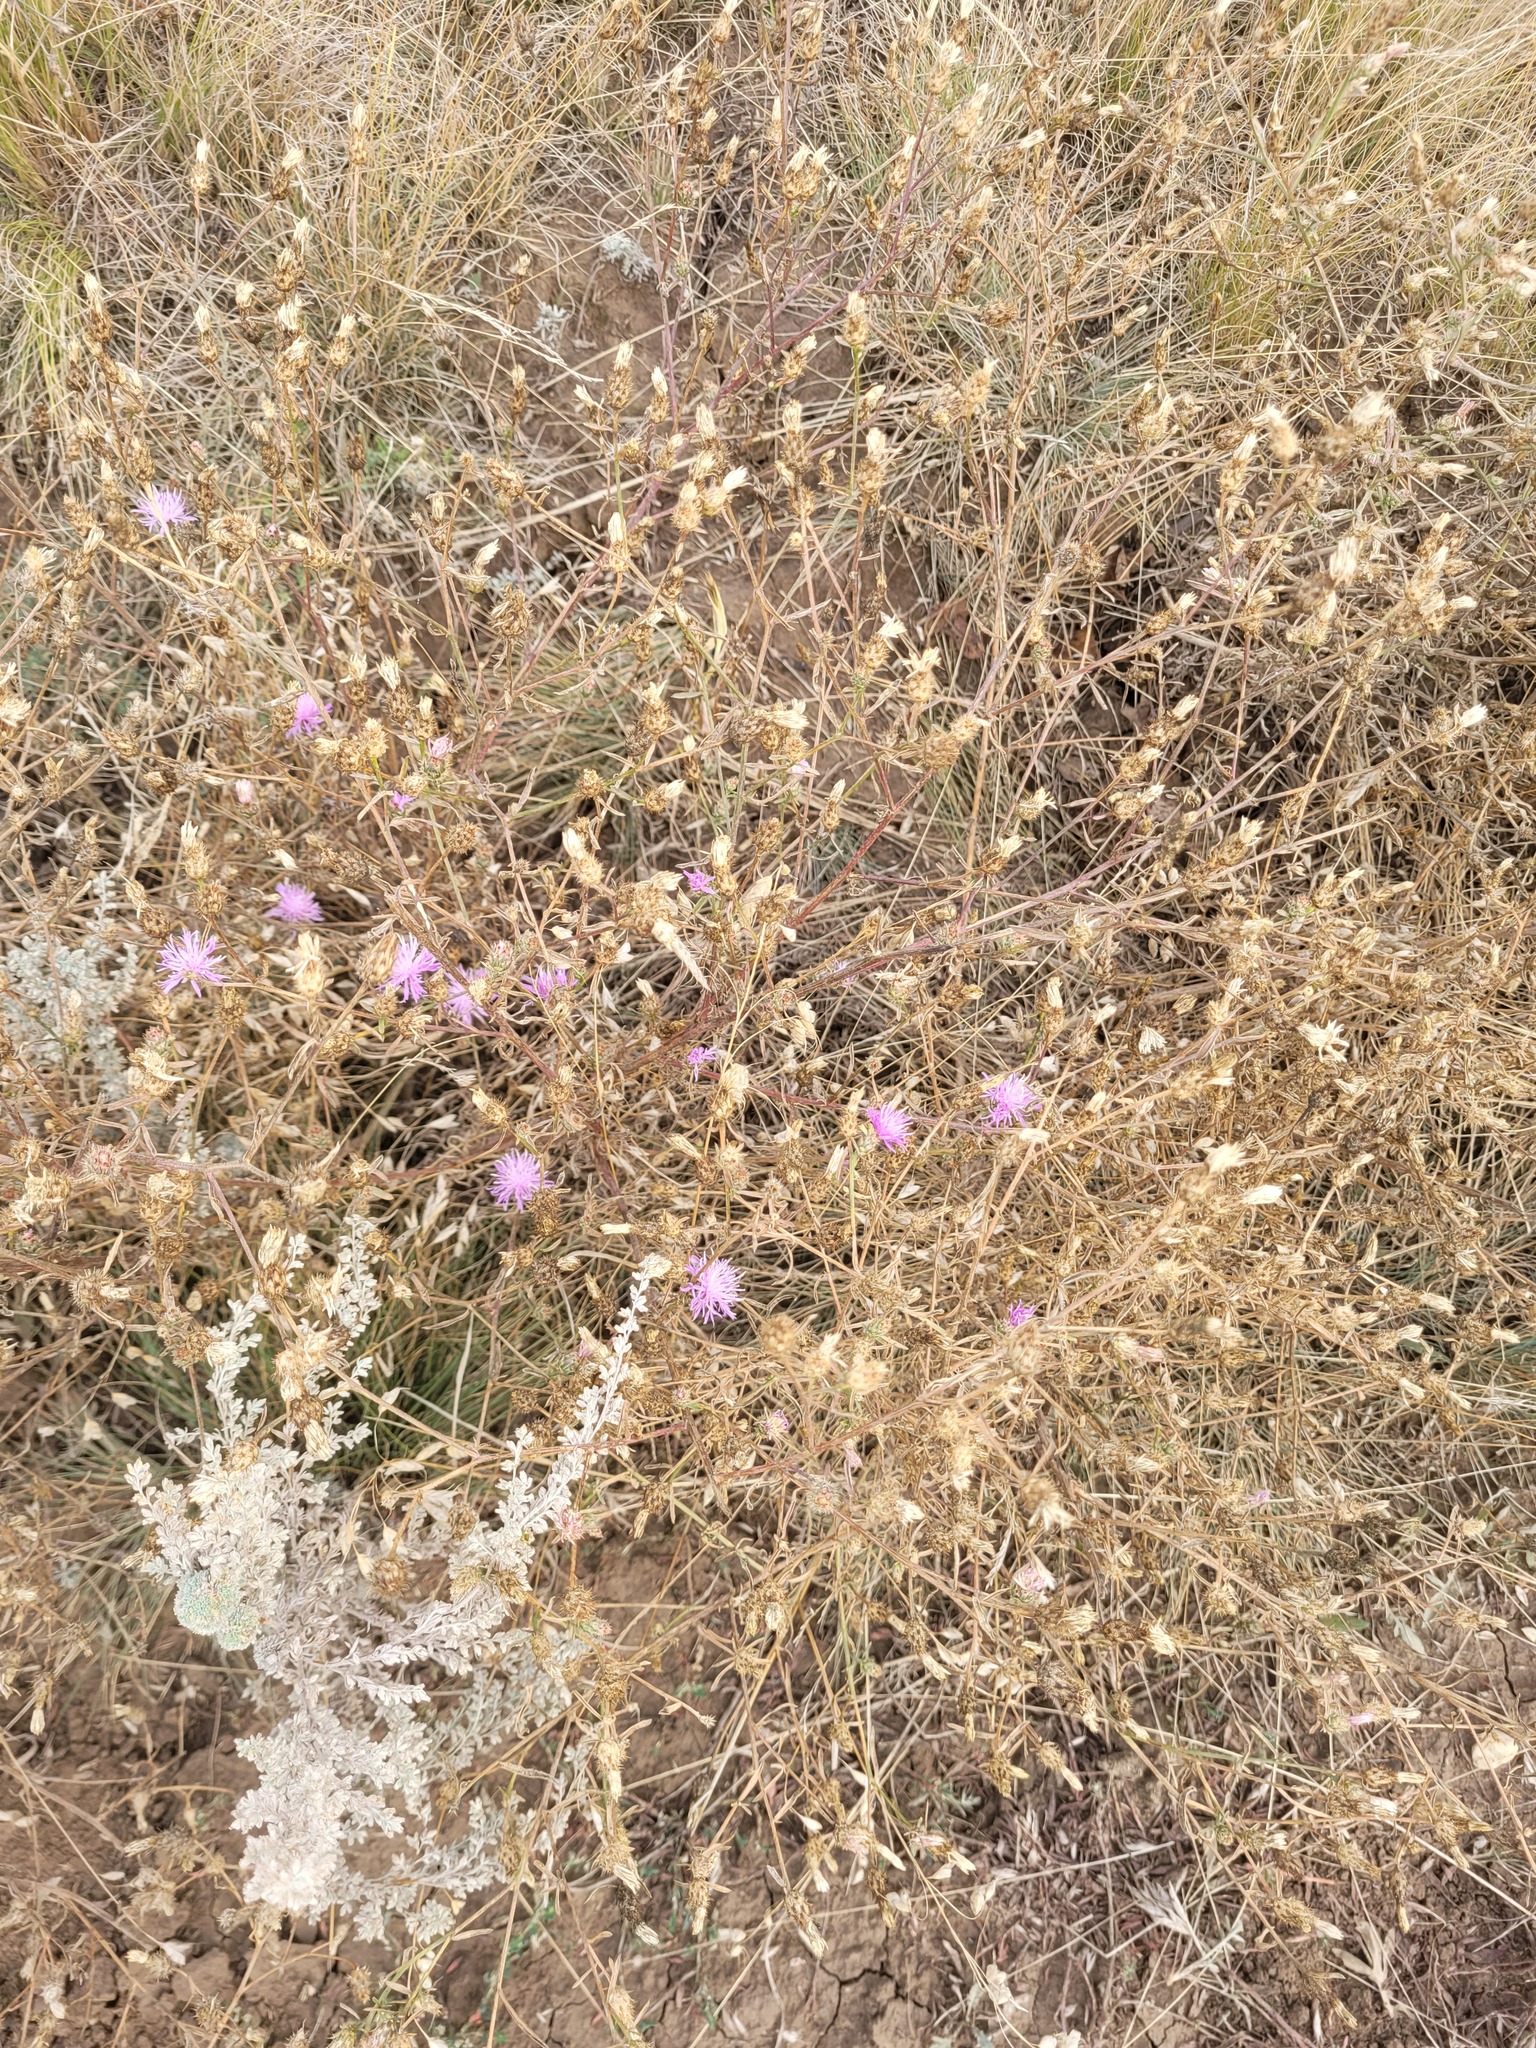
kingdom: Plantae
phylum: Tracheophyta
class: Magnoliopsida
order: Asterales
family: Asteraceae
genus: Centaurea
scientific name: Centaurea diffusa
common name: Diffuse knapweed
